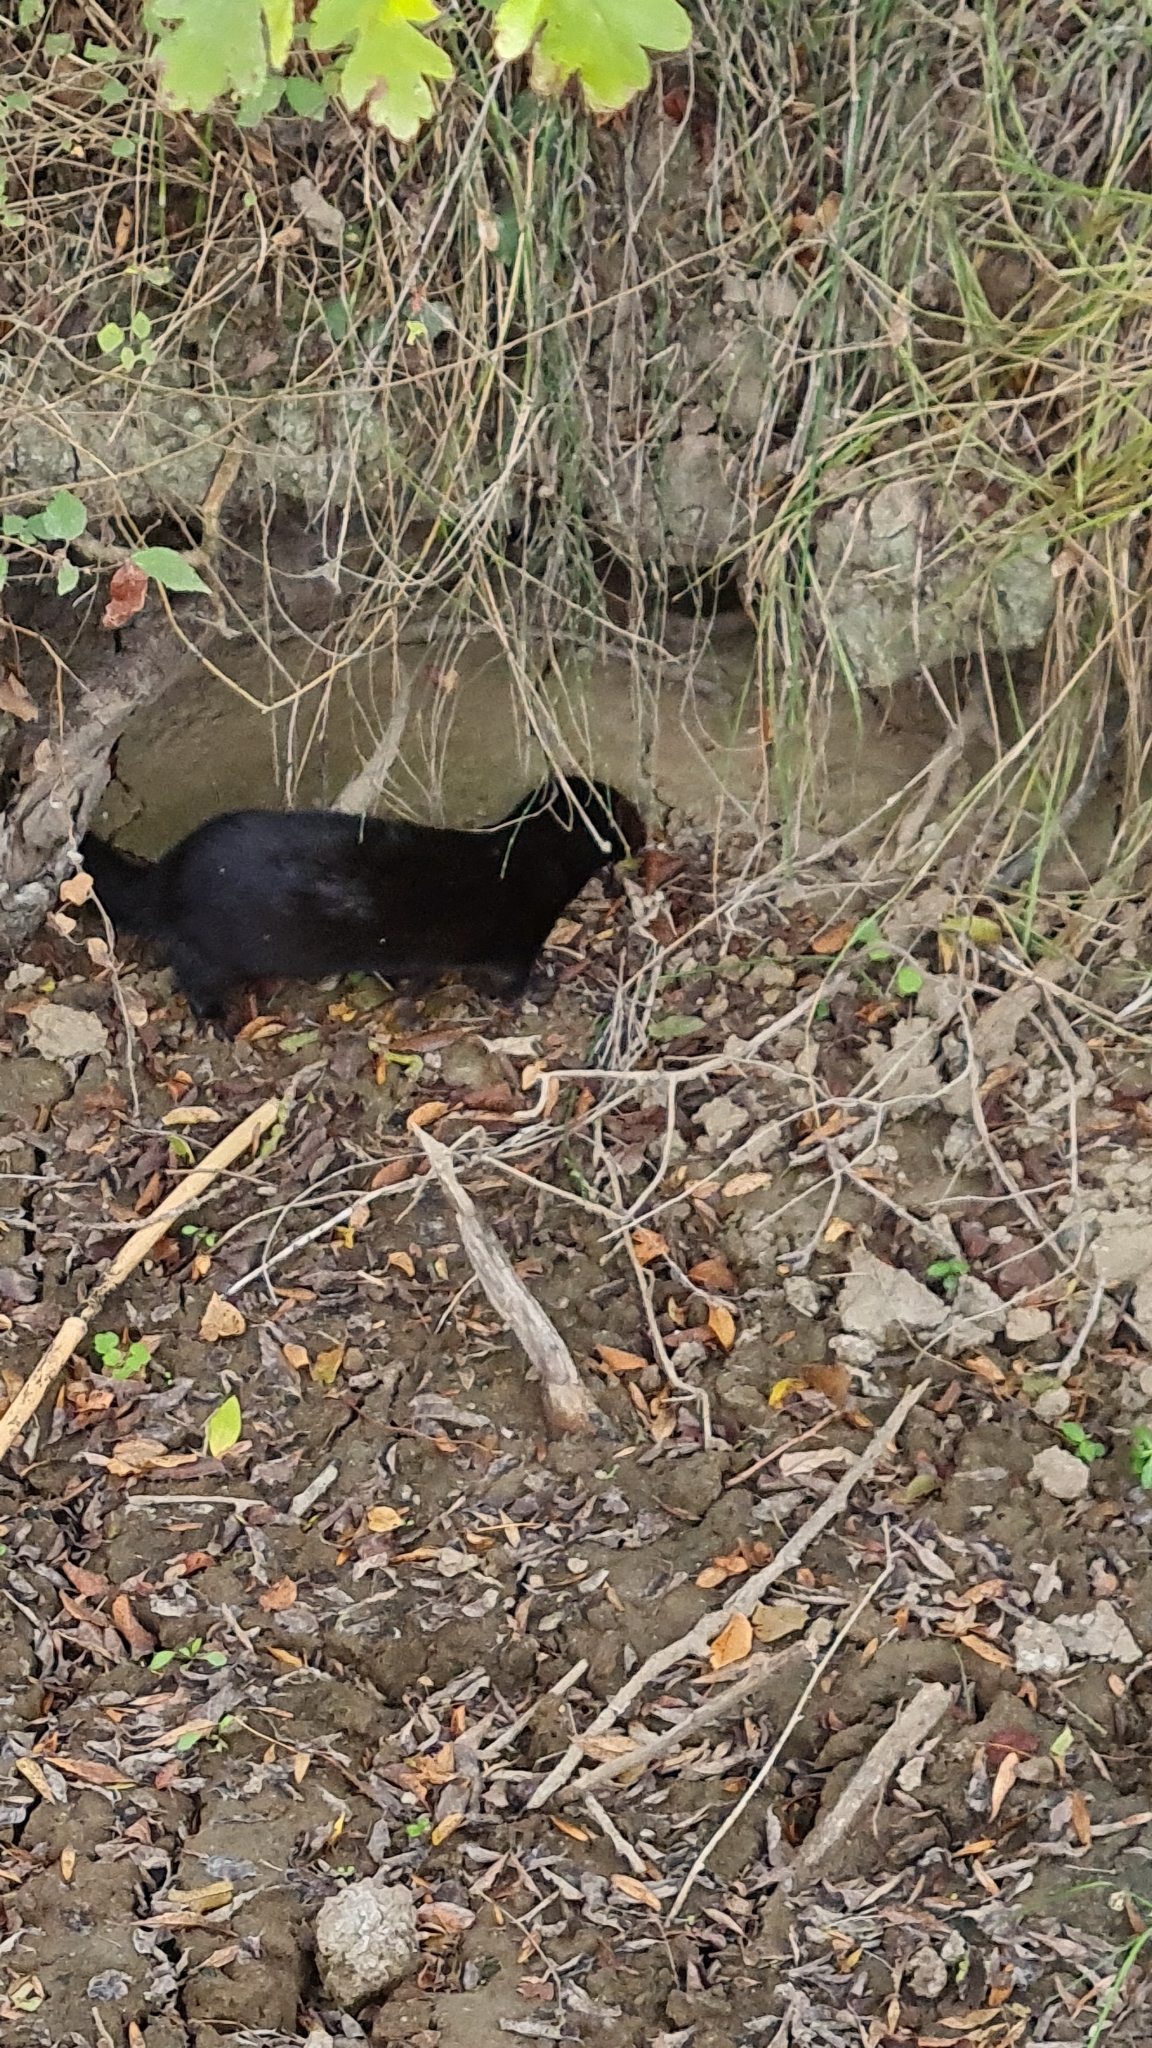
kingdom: Animalia
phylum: Chordata
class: Mammalia
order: Carnivora
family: Mustelidae
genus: Mustela
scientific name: Mustela
